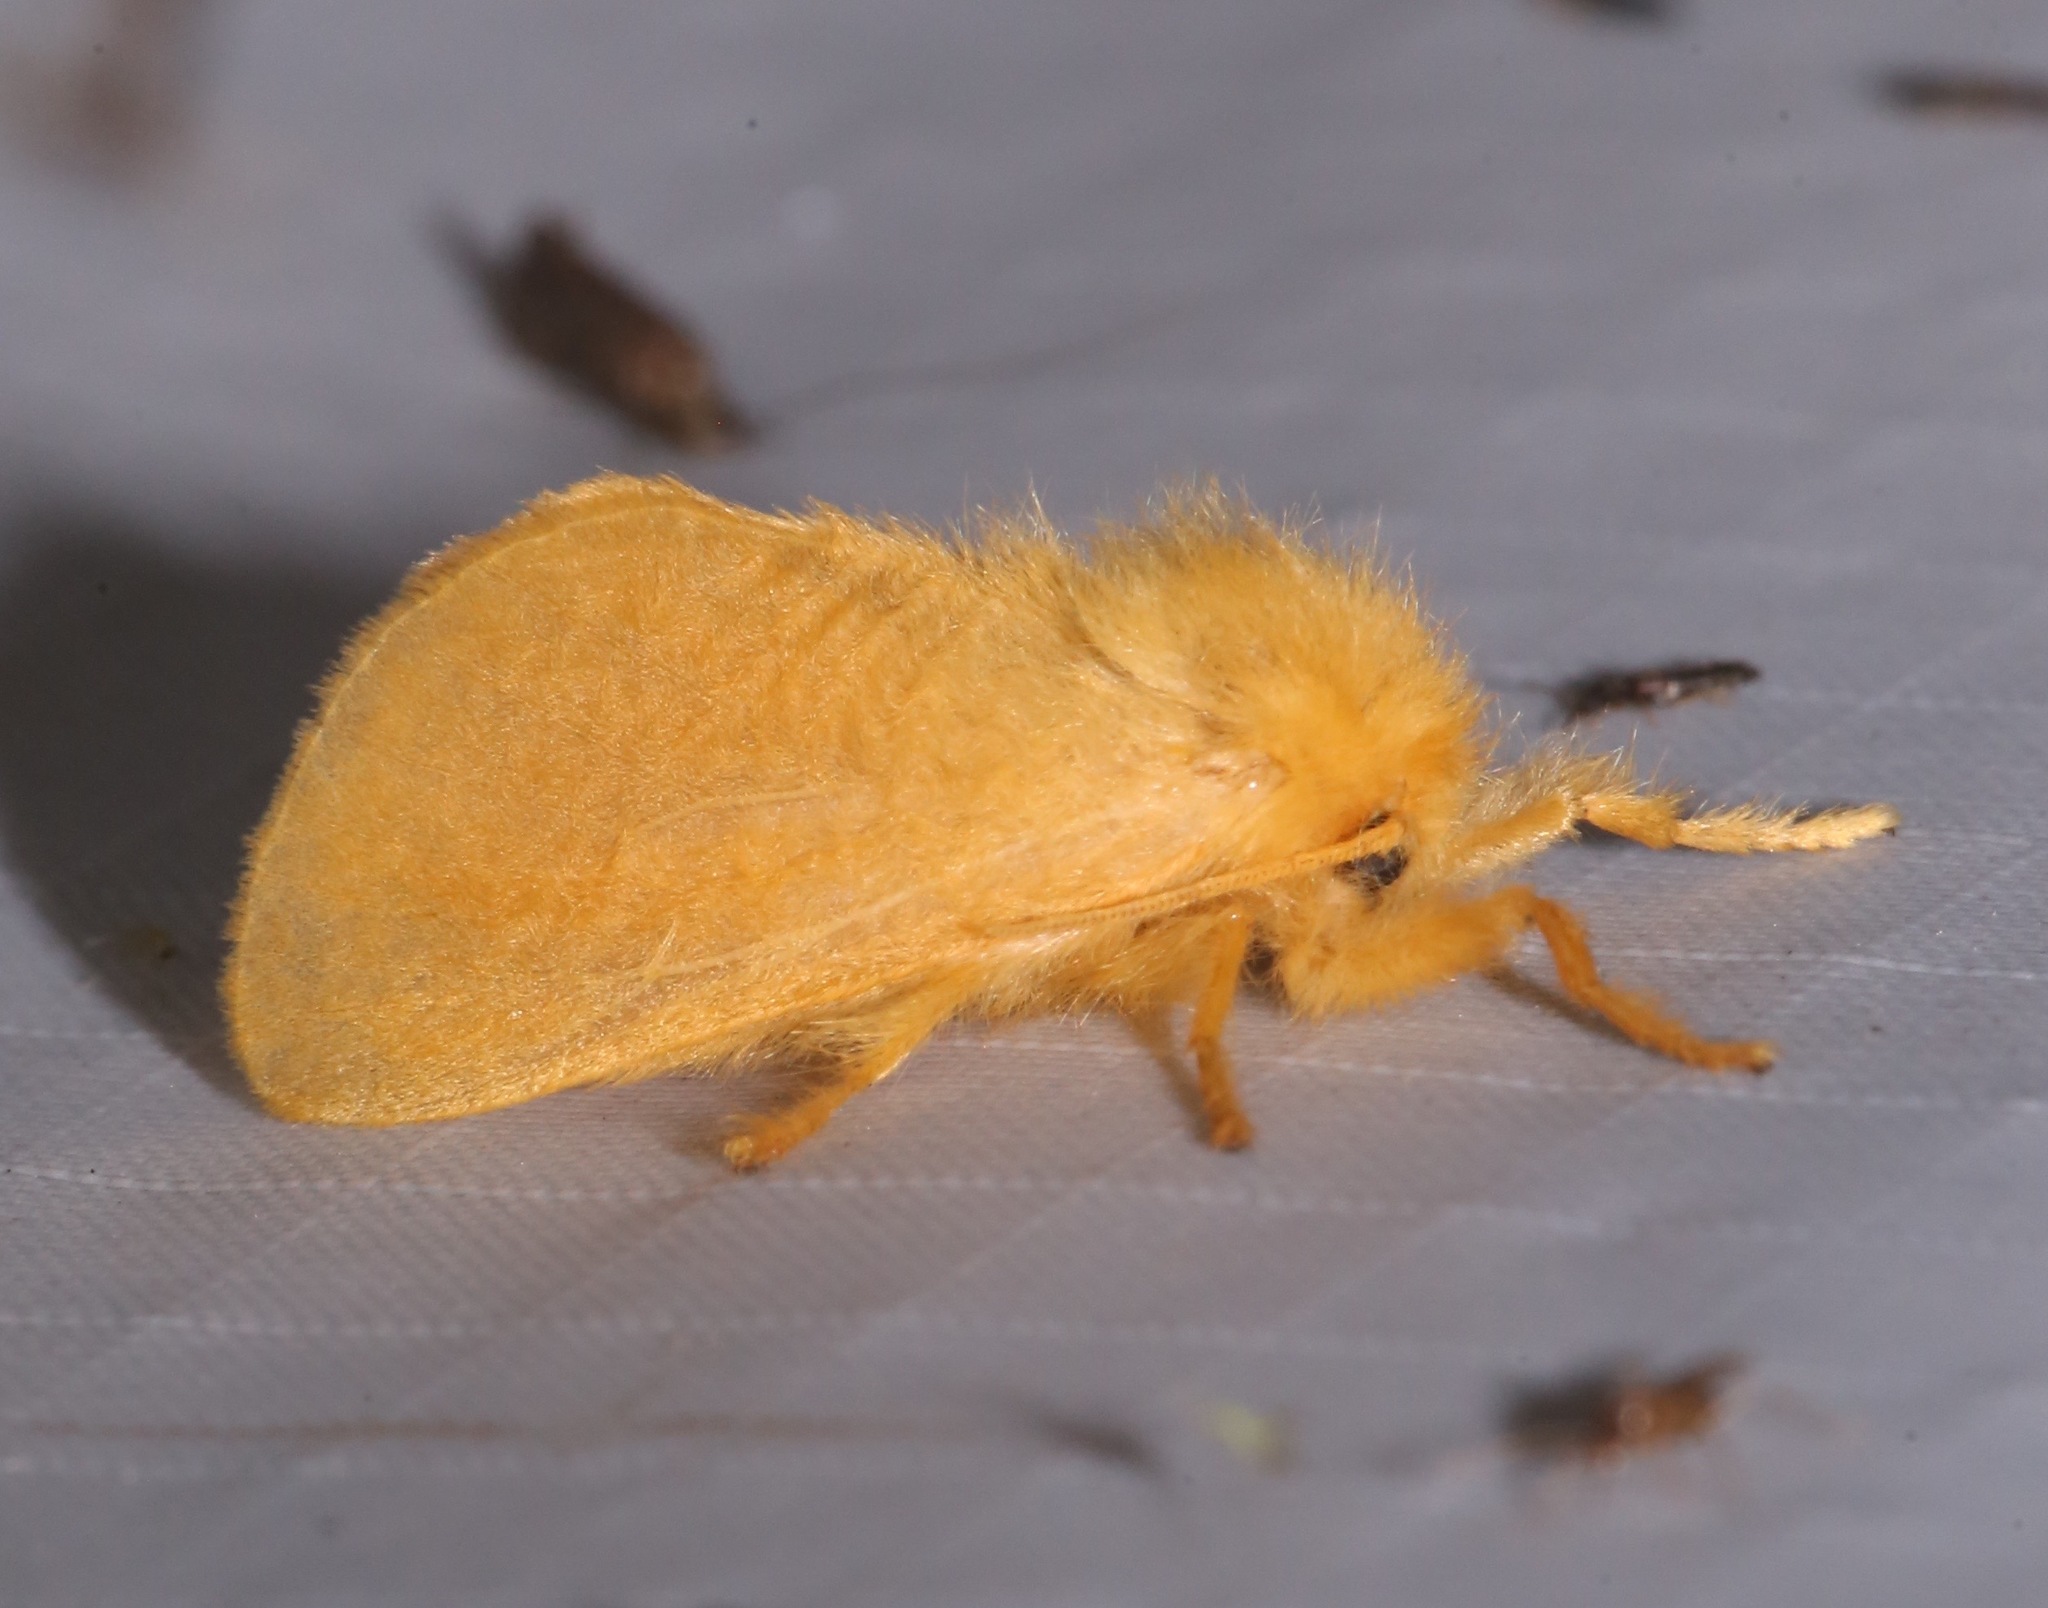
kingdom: Animalia
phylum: Arthropoda
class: Insecta
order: Lepidoptera
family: Megalopygidae
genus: Megalopyge
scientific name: Megalopyge pixidifera
